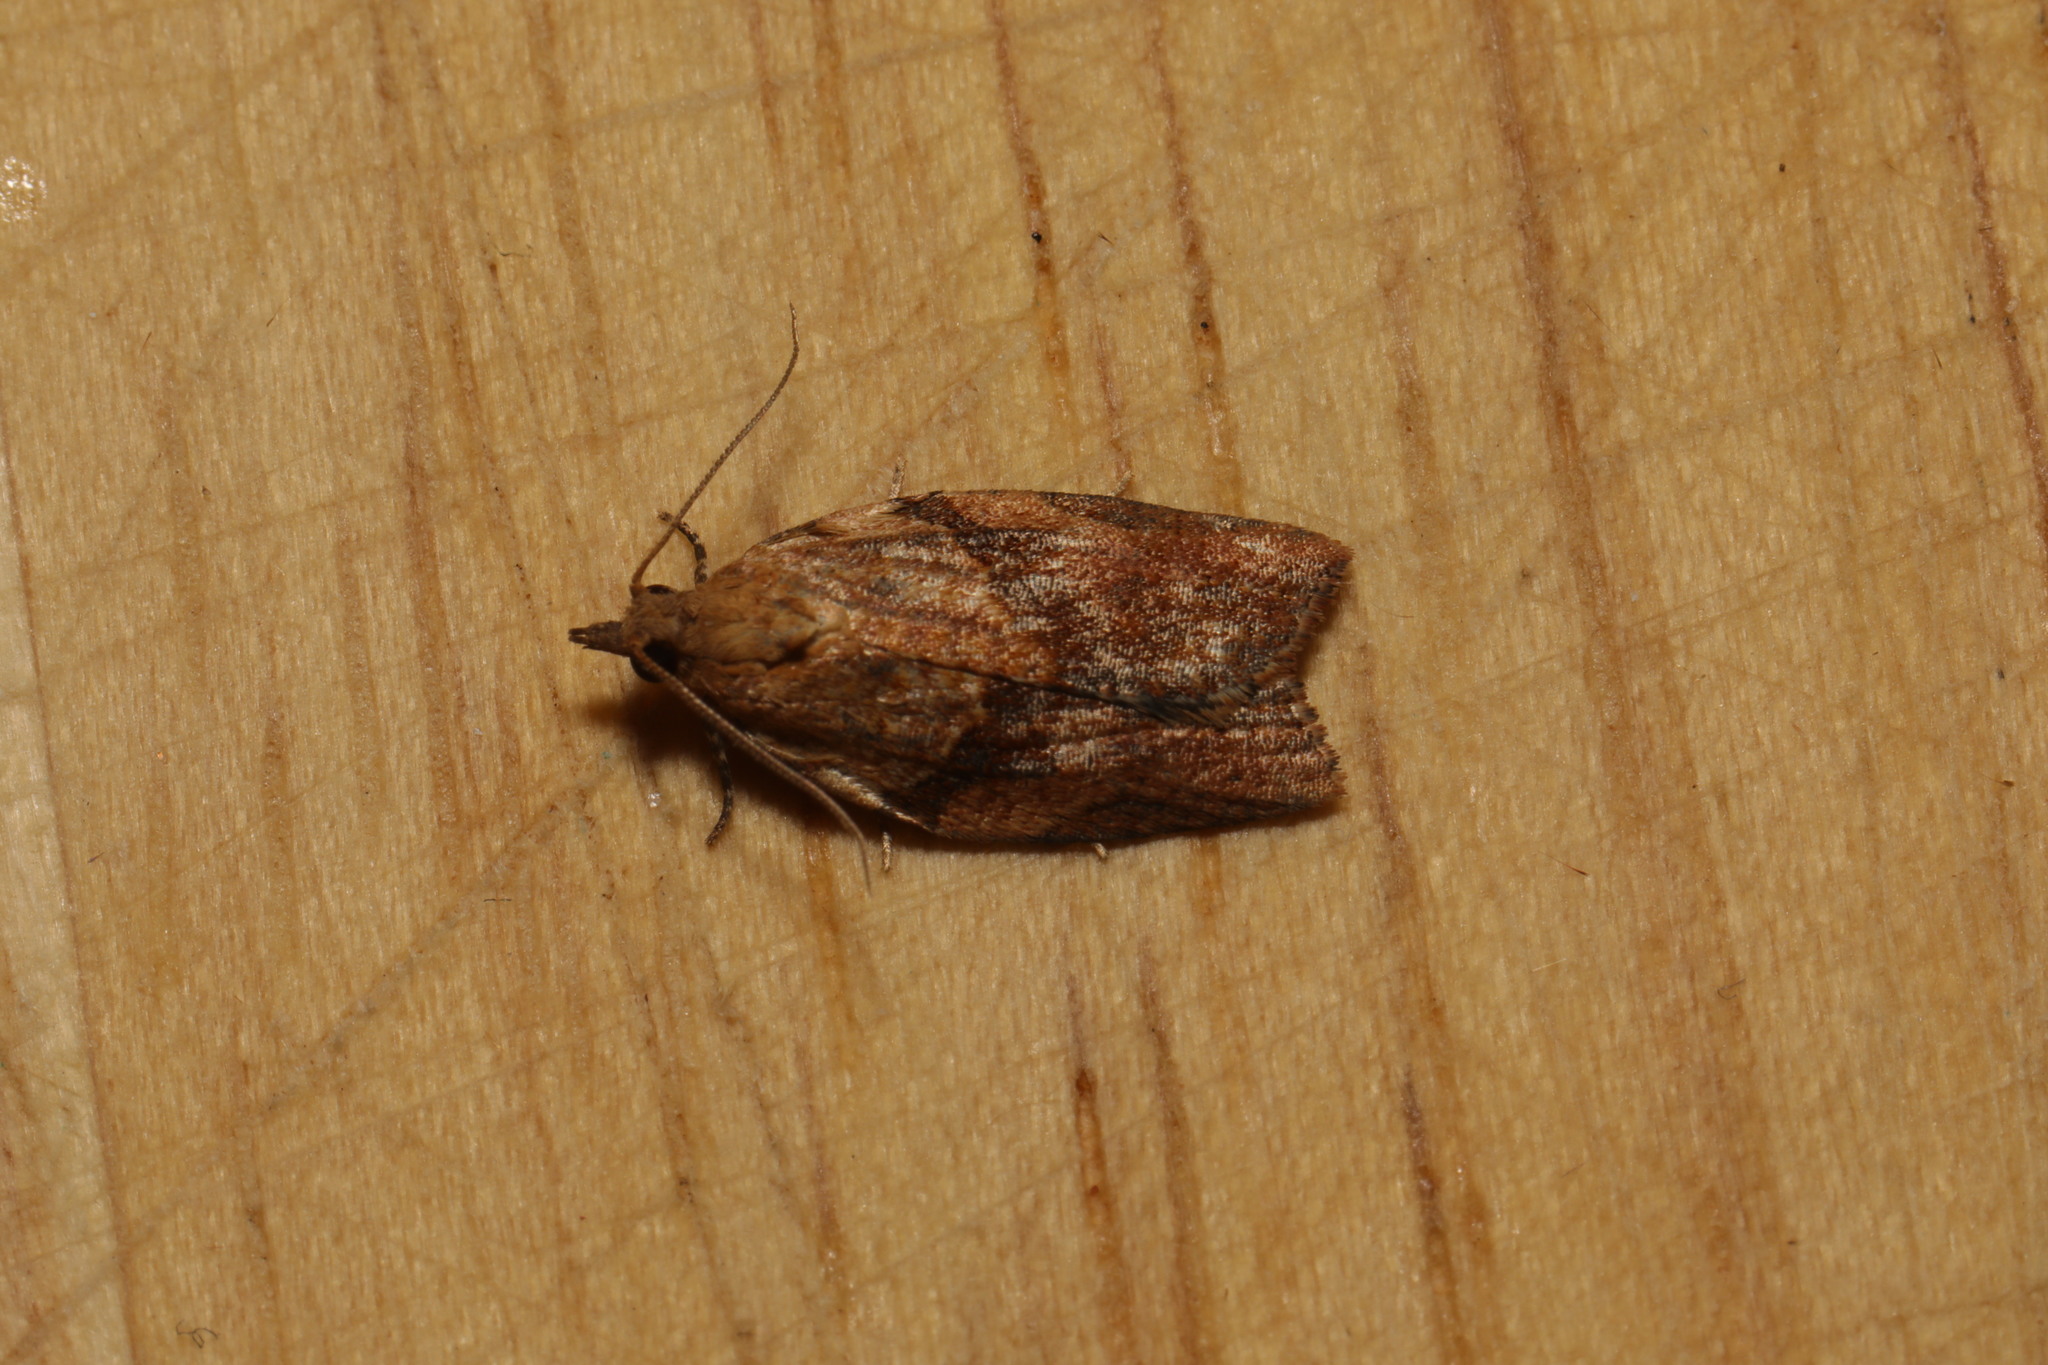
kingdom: Animalia
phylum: Arthropoda
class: Insecta
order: Lepidoptera
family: Tortricidae
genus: Epiphyas
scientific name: Epiphyas postvittana
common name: Light brown apple moth
